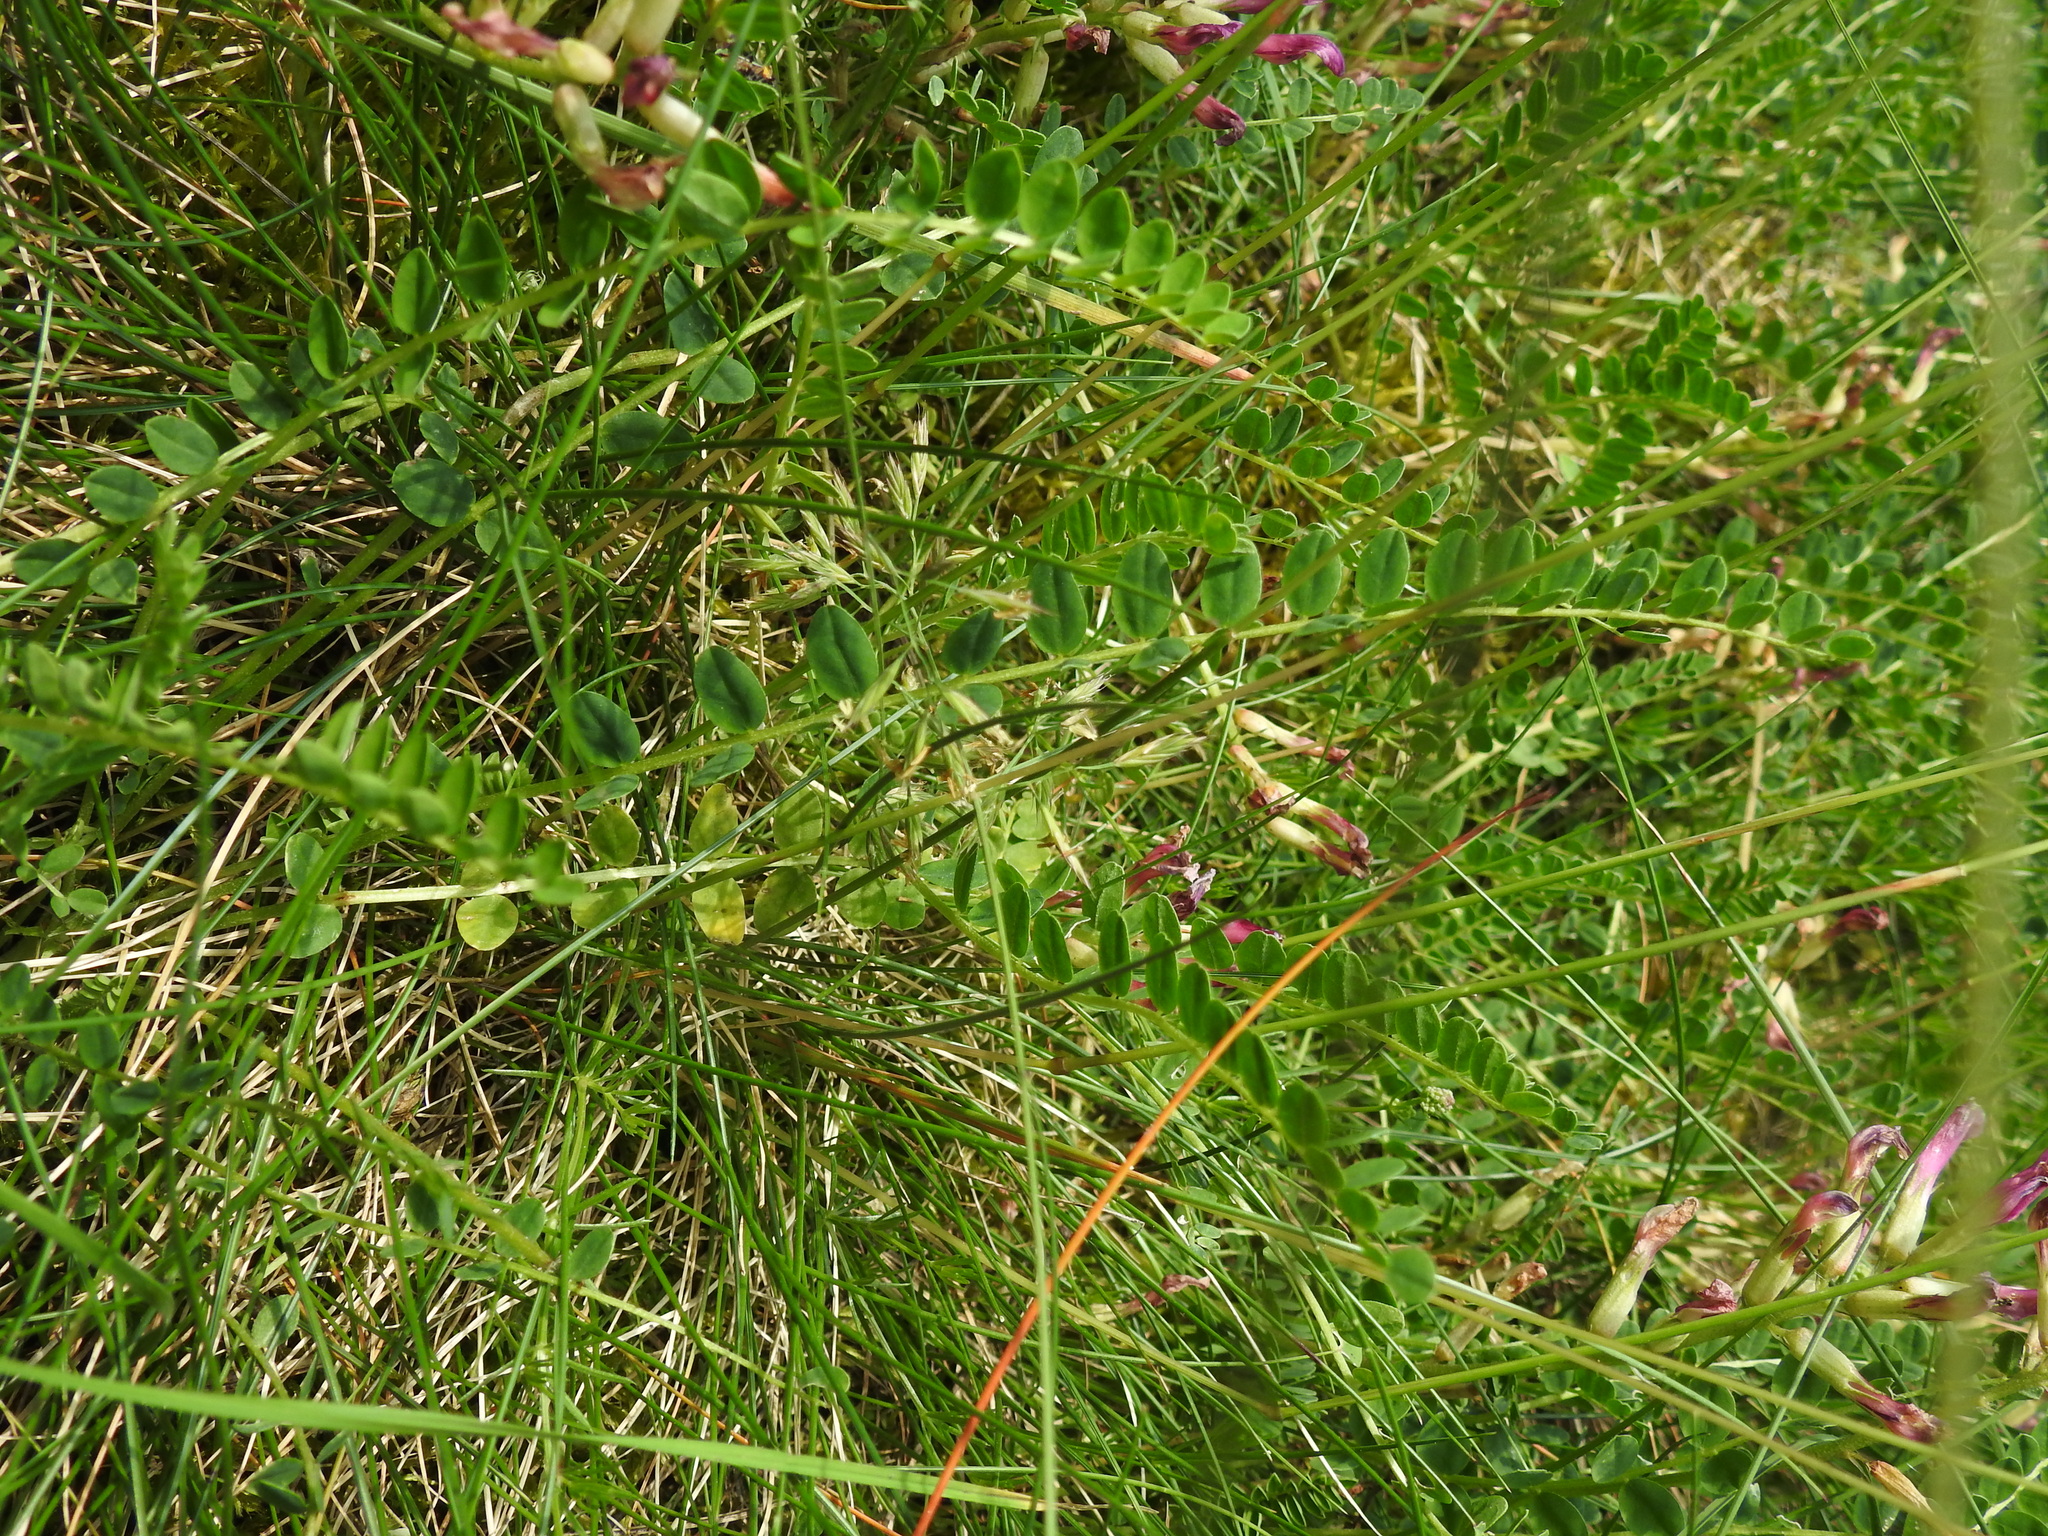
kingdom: Plantae
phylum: Tracheophyta
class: Magnoliopsida
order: Fabales
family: Fabaceae
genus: Astragalus
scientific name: Astragalus monspessulanus
